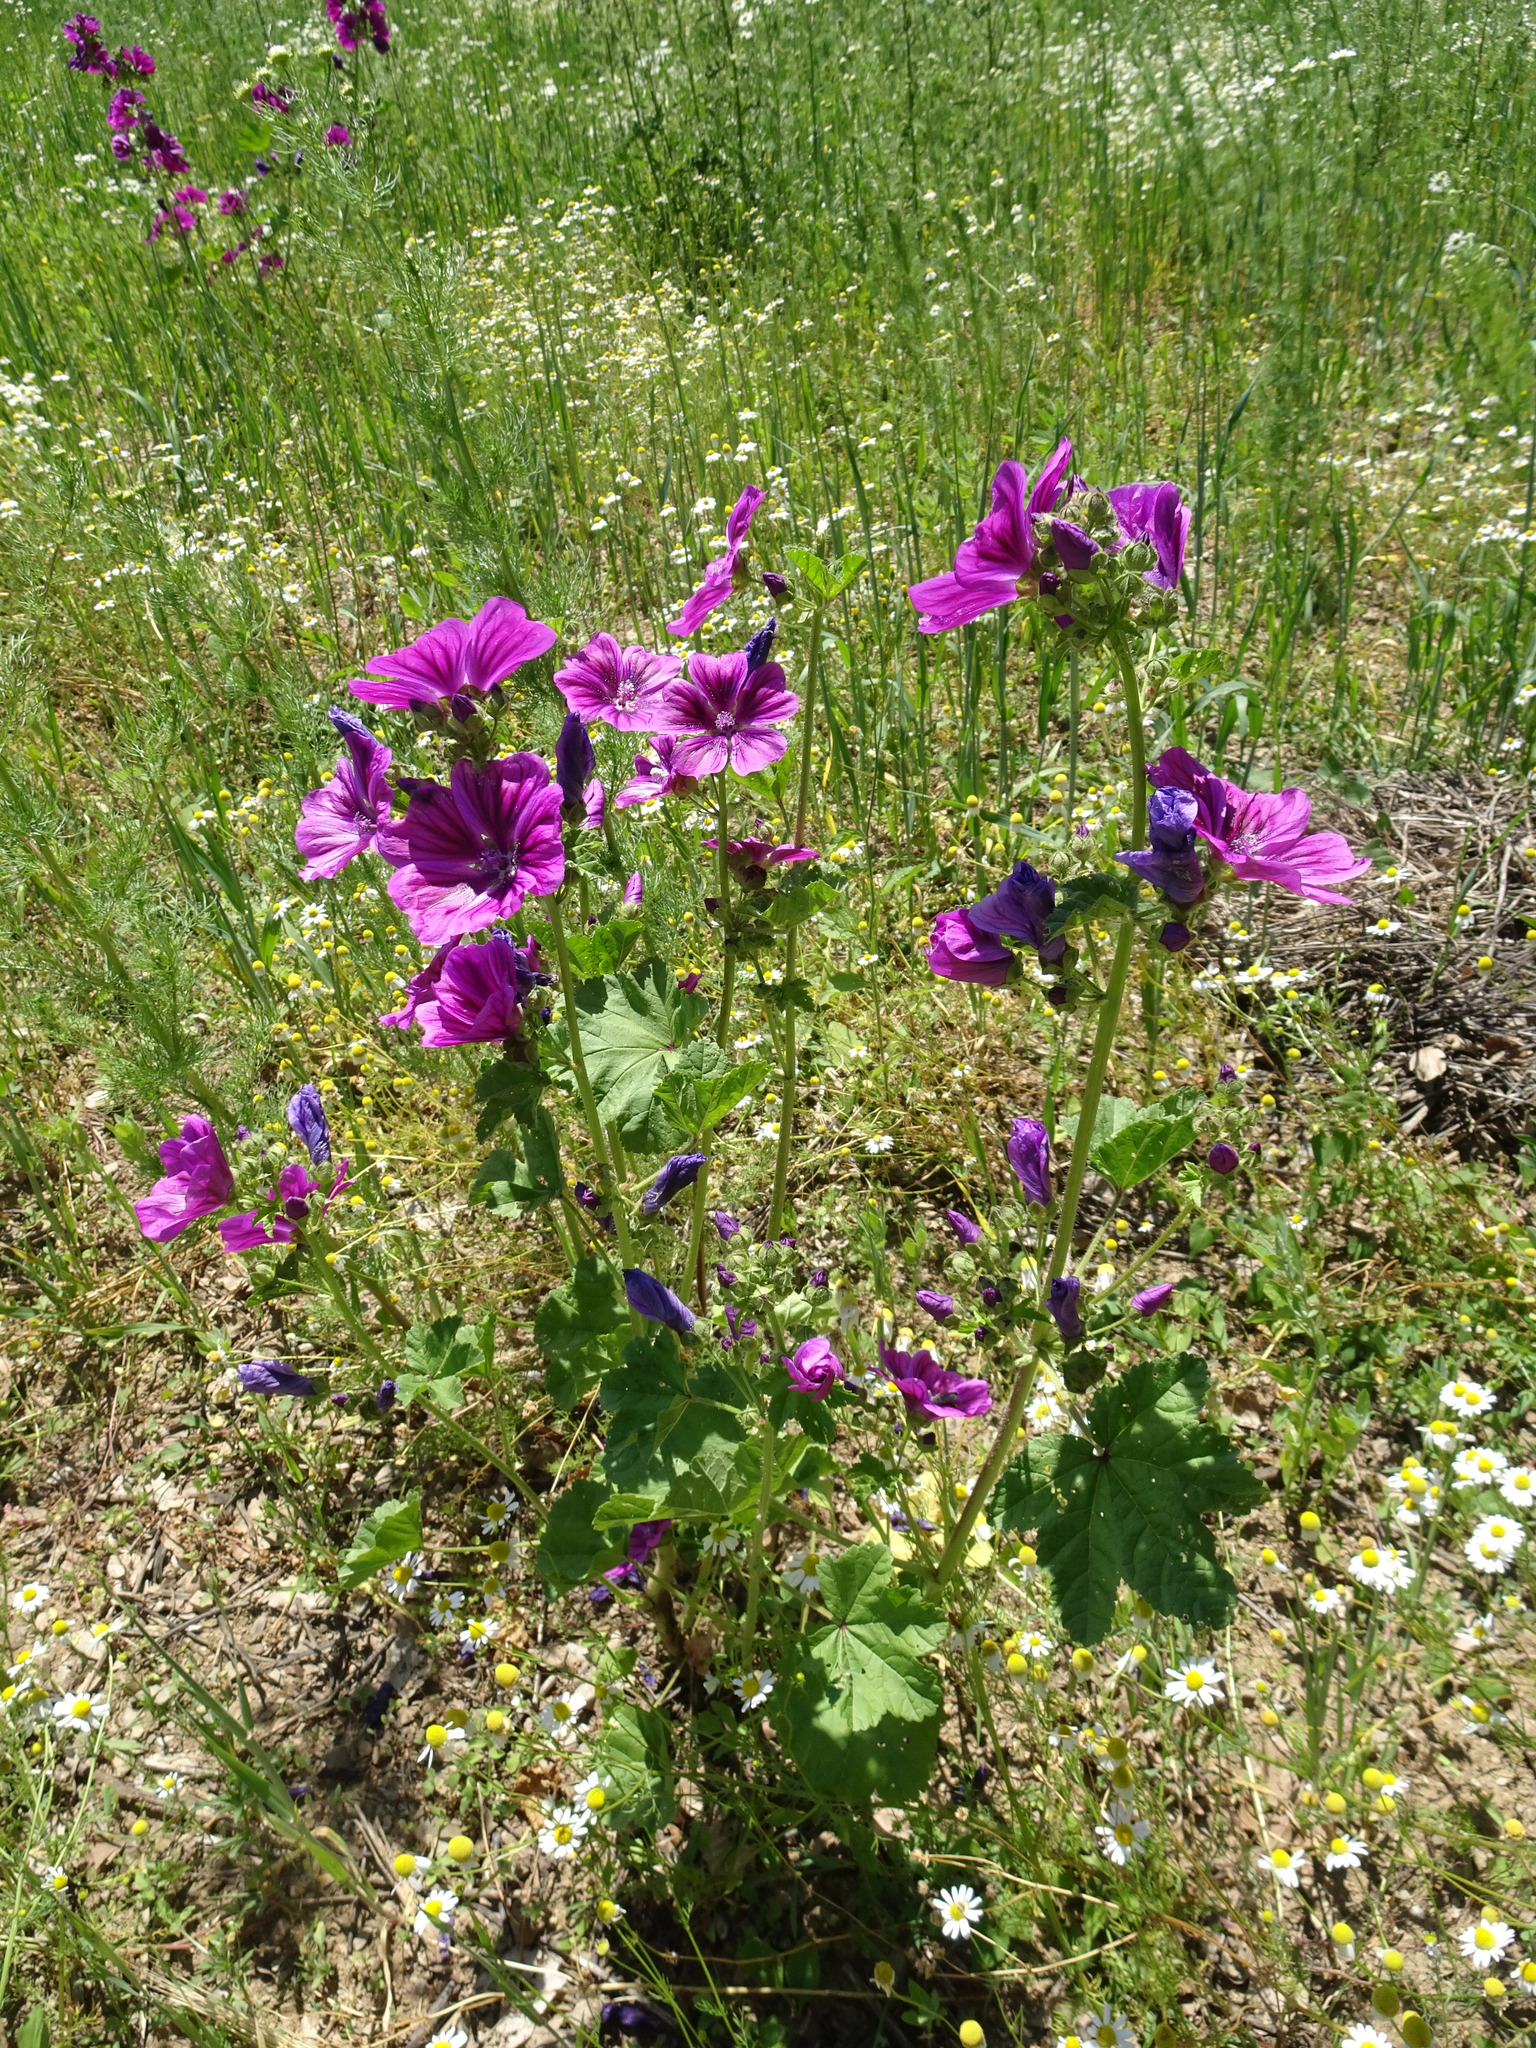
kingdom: Plantae
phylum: Tracheophyta
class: Magnoliopsida
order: Malvales
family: Malvaceae
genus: Malva
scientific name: Malva sylvestris
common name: Common mallow
